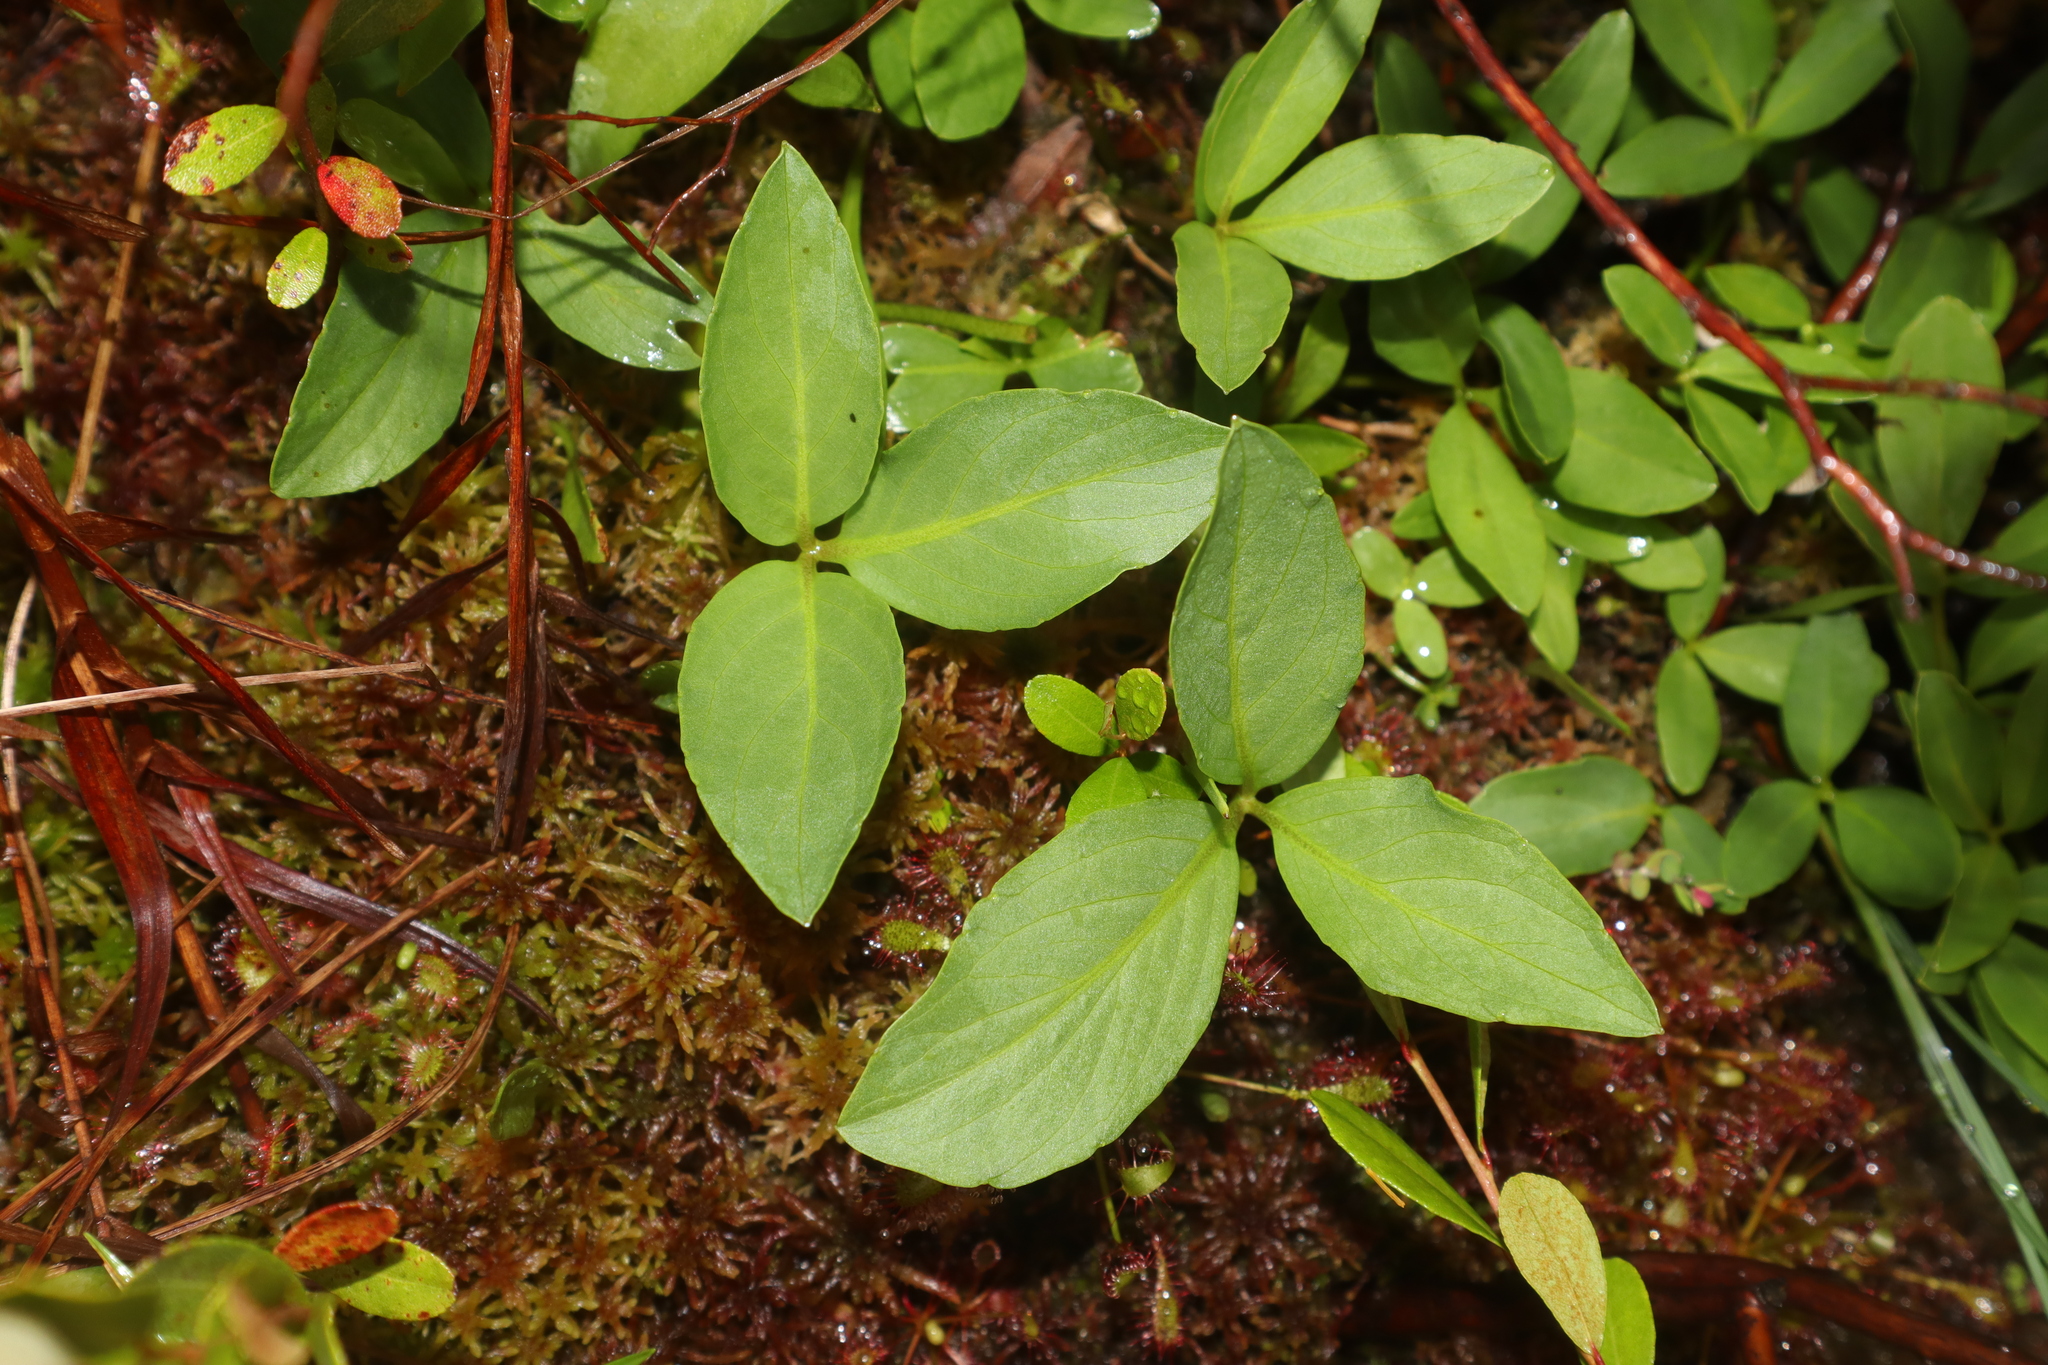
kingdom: Plantae
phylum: Tracheophyta
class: Magnoliopsida
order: Asterales
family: Menyanthaceae
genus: Menyanthes
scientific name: Menyanthes trifoliata
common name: Bogbean
